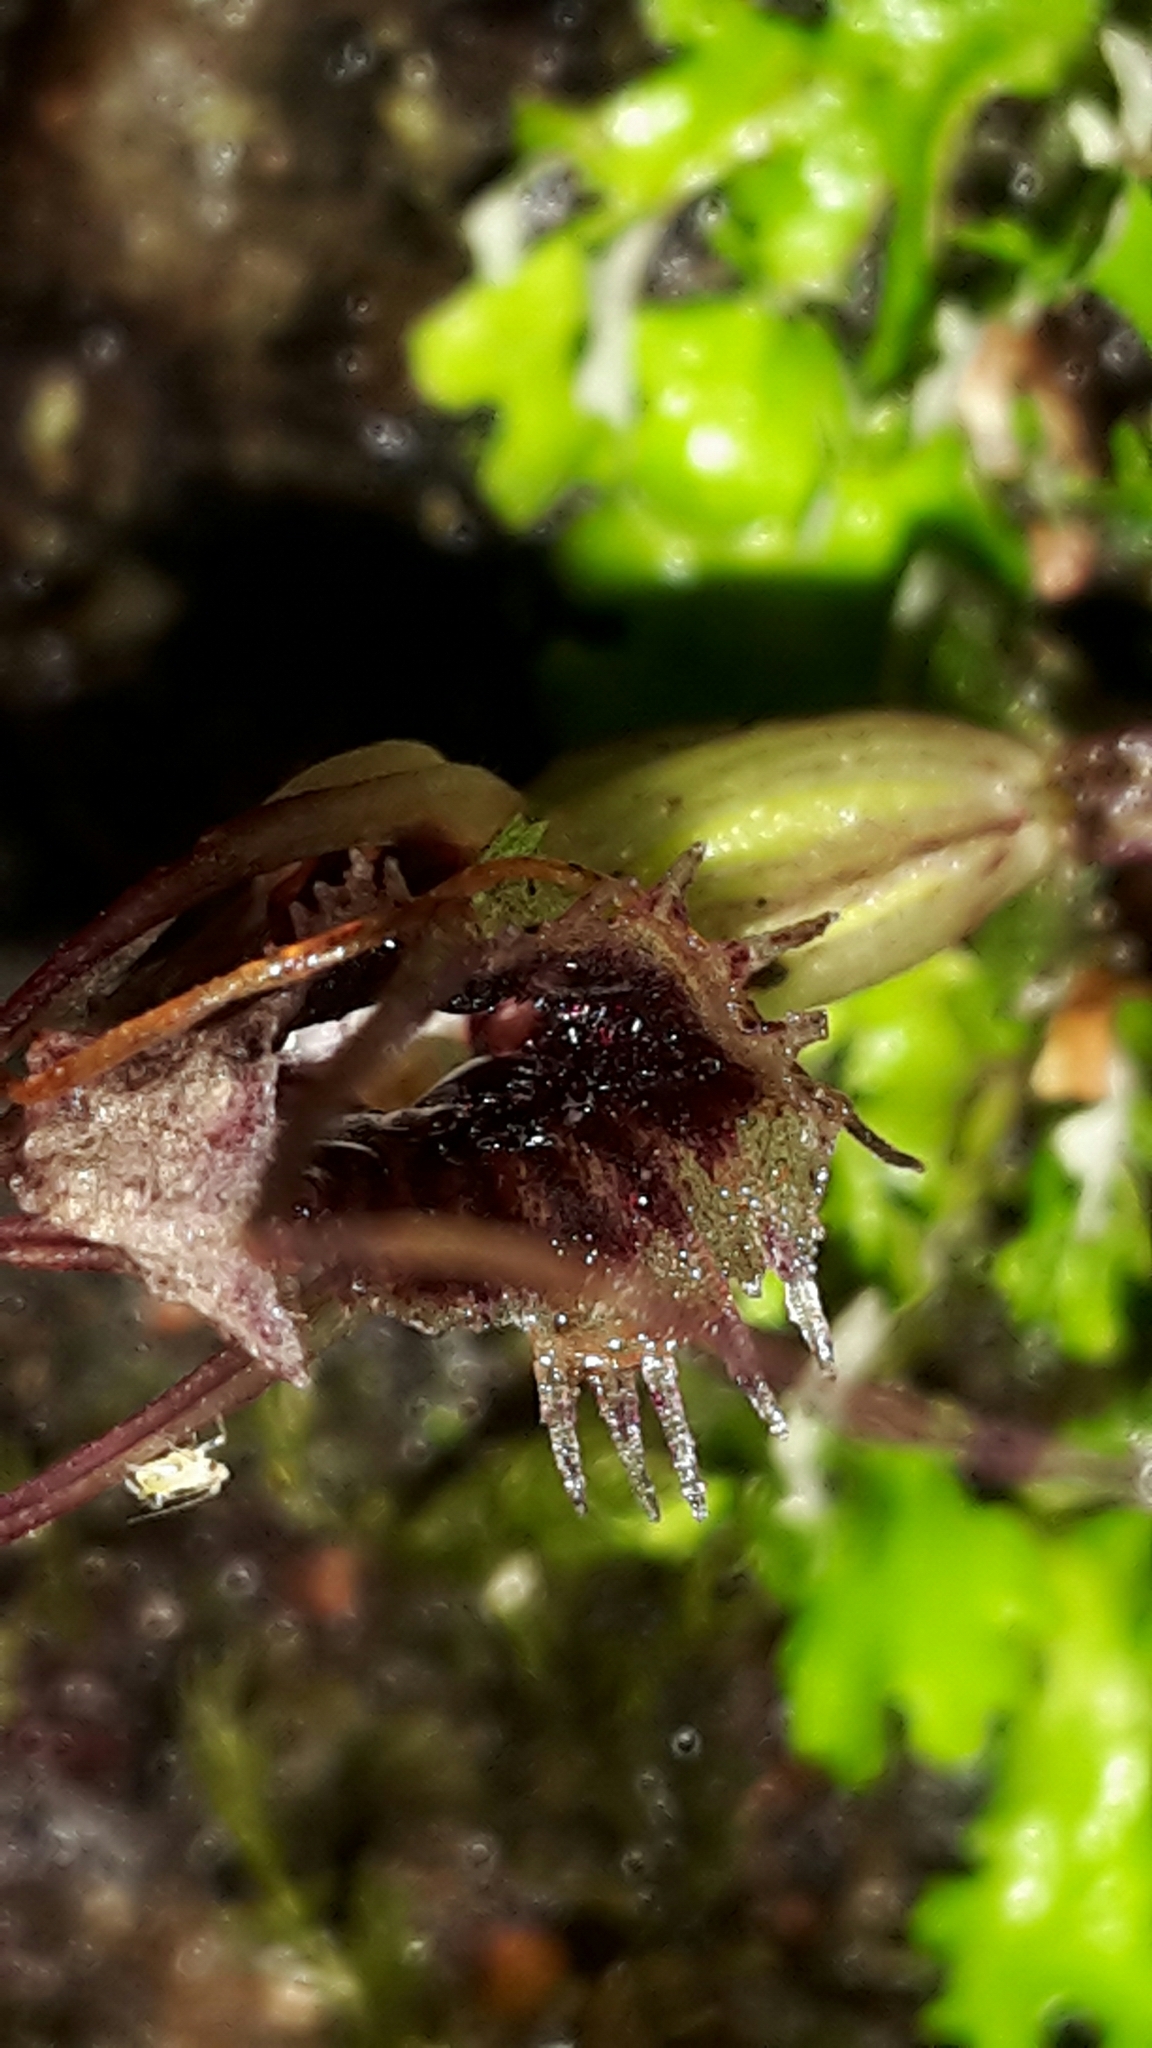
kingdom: Plantae
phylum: Tracheophyta
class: Liliopsida
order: Asparagales
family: Orchidaceae
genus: Corybas
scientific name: Corybas oblongus
